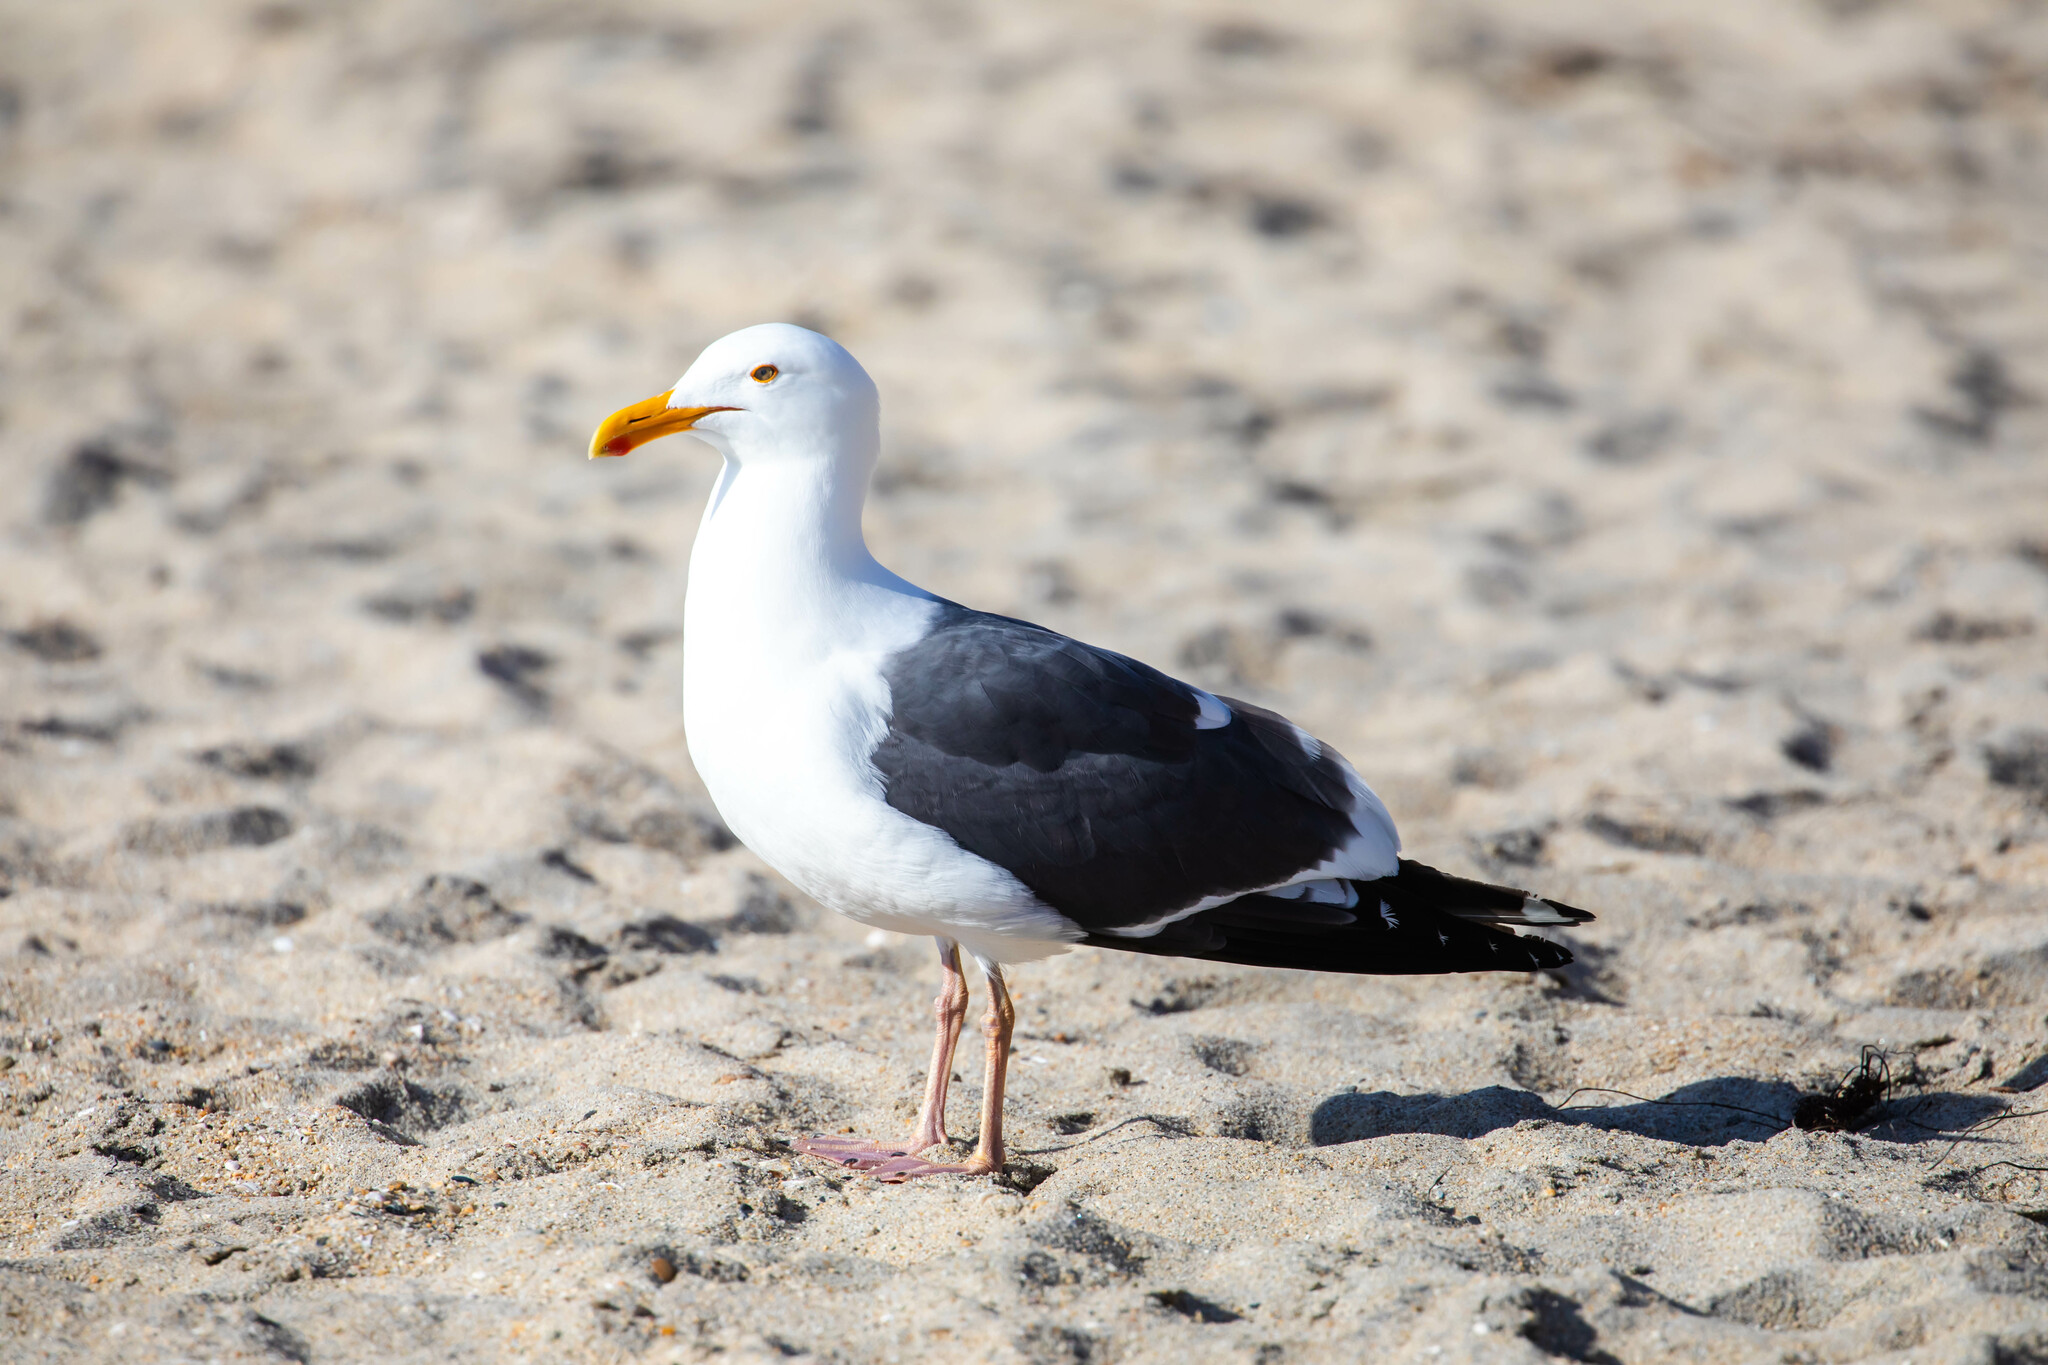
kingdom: Animalia
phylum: Chordata
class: Aves
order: Charadriiformes
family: Laridae
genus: Larus
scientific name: Larus occidentalis
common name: Western gull
